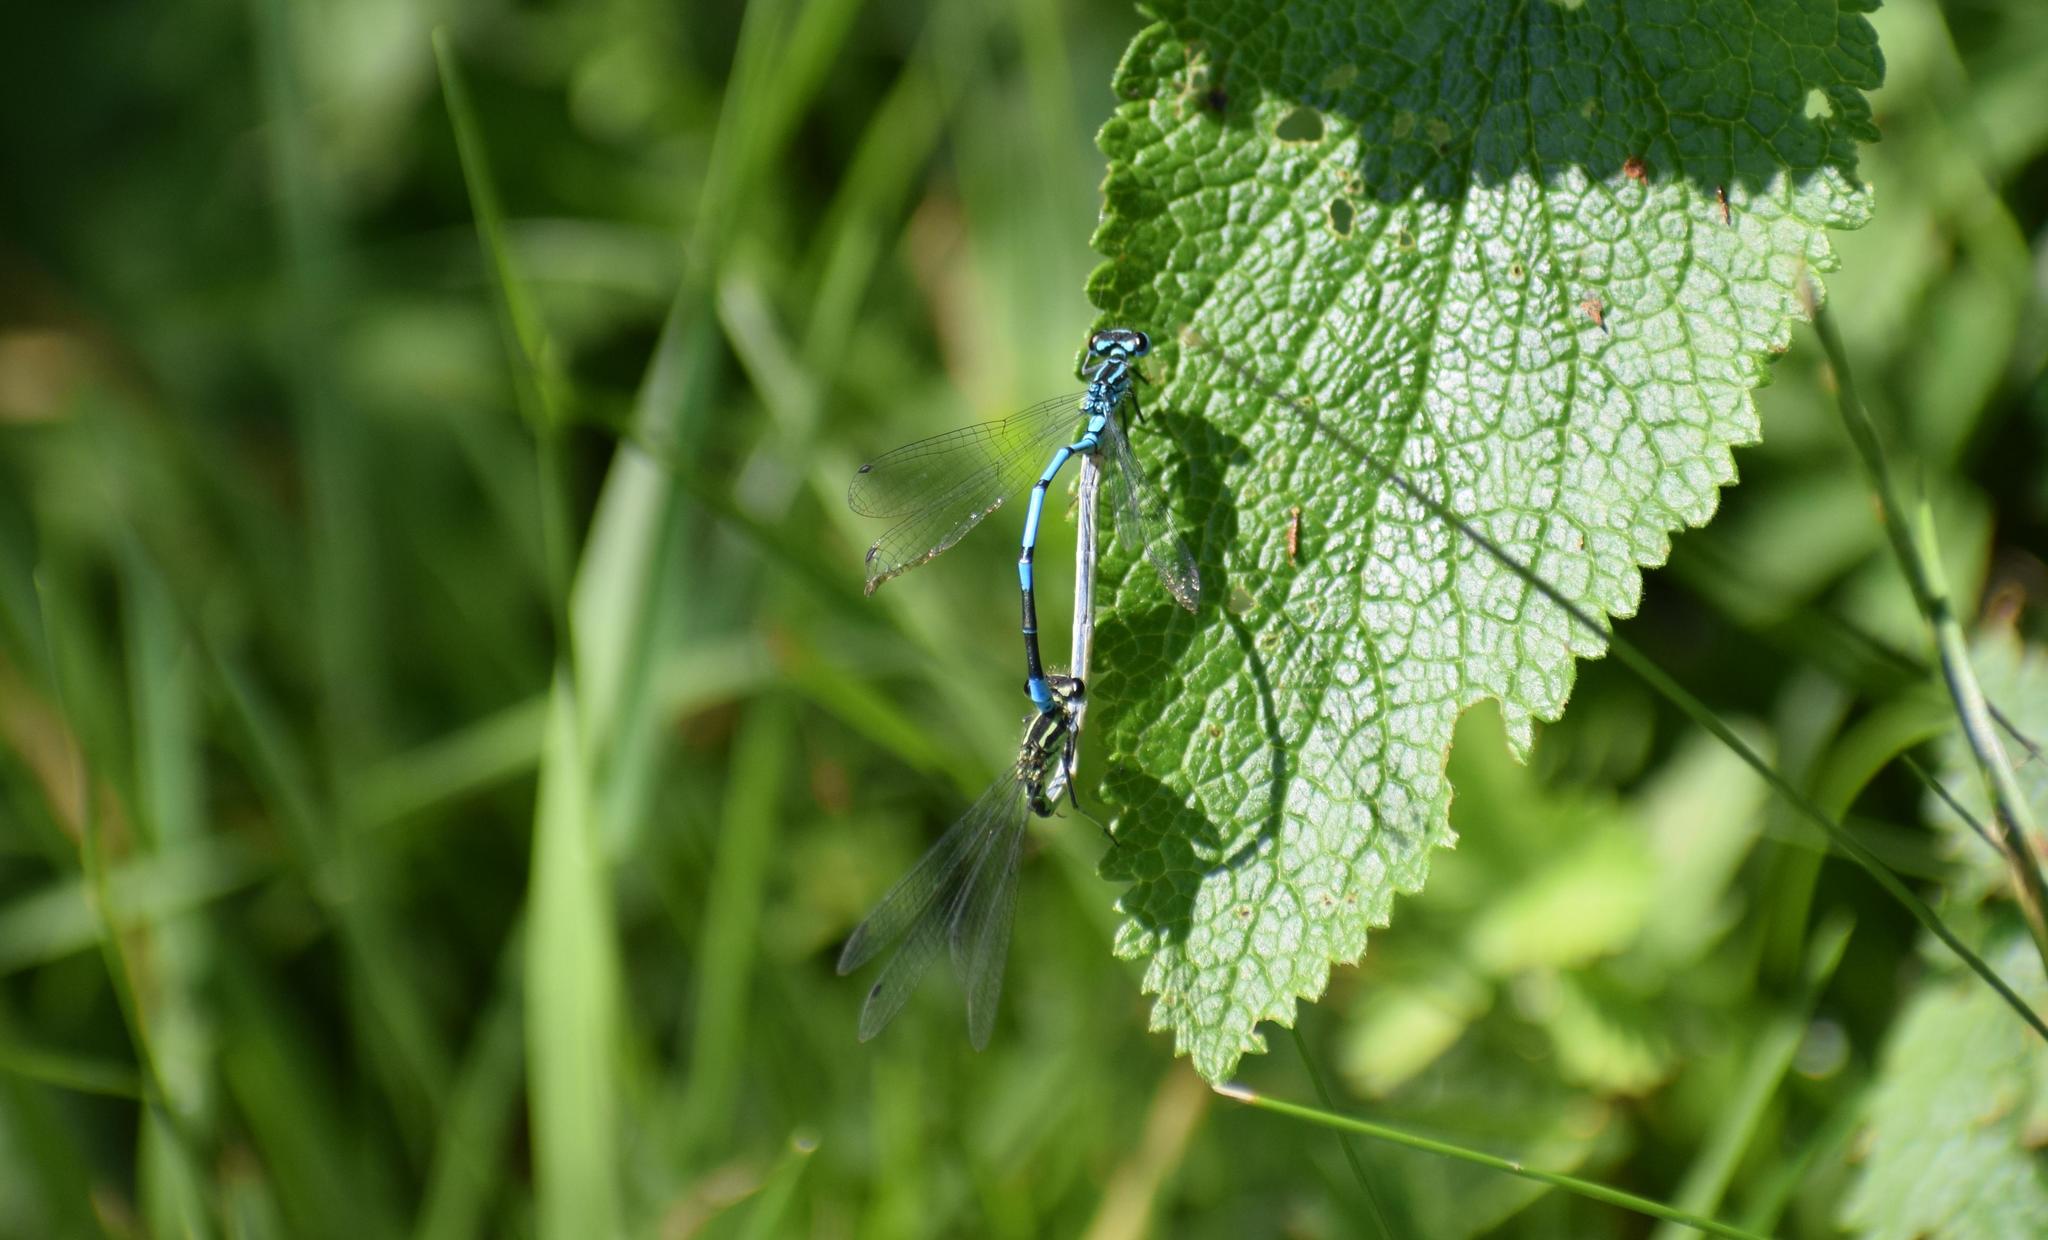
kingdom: Animalia
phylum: Arthropoda
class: Insecta
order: Odonata
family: Coenagrionidae
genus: Coenagrion
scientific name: Coenagrion puella
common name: Azure damselfly
